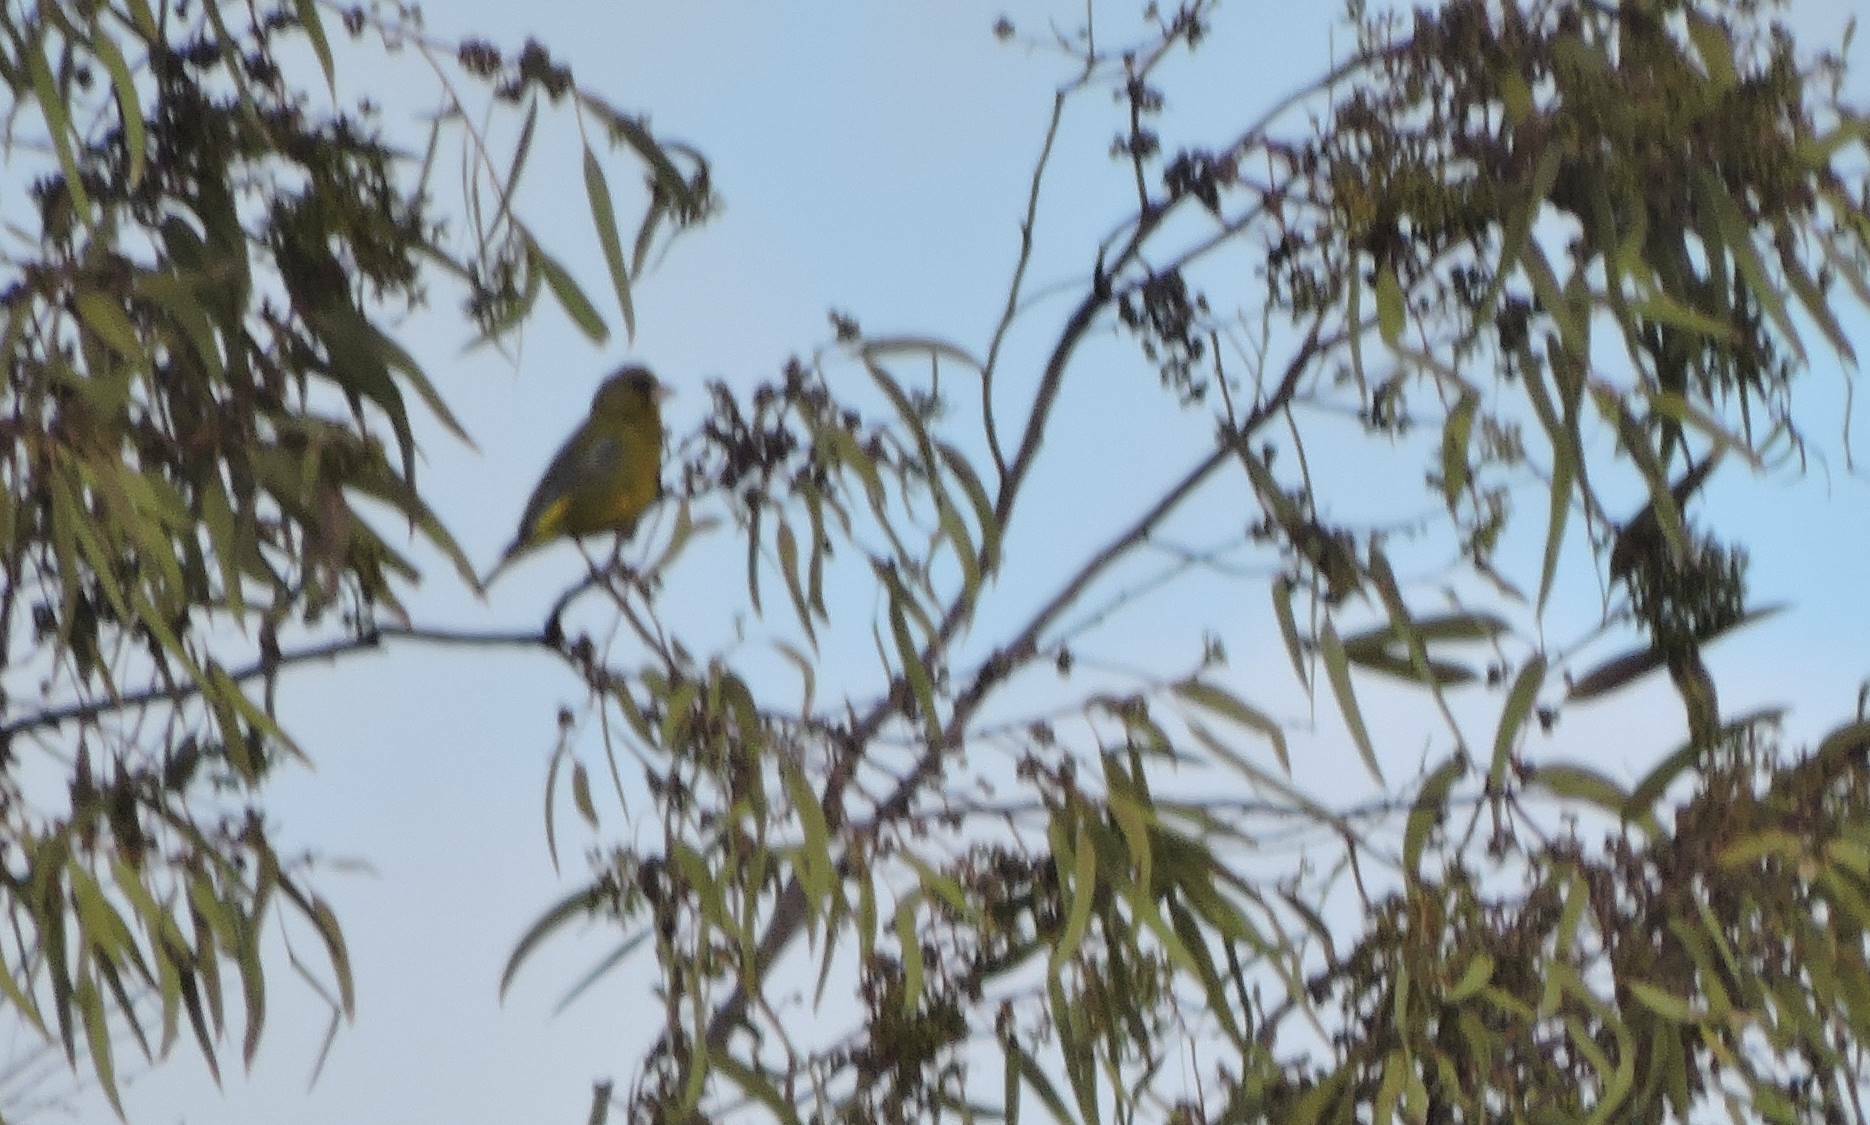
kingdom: Plantae
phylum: Tracheophyta
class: Liliopsida
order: Poales
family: Poaceae
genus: Chloris
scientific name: Chloris chloris
